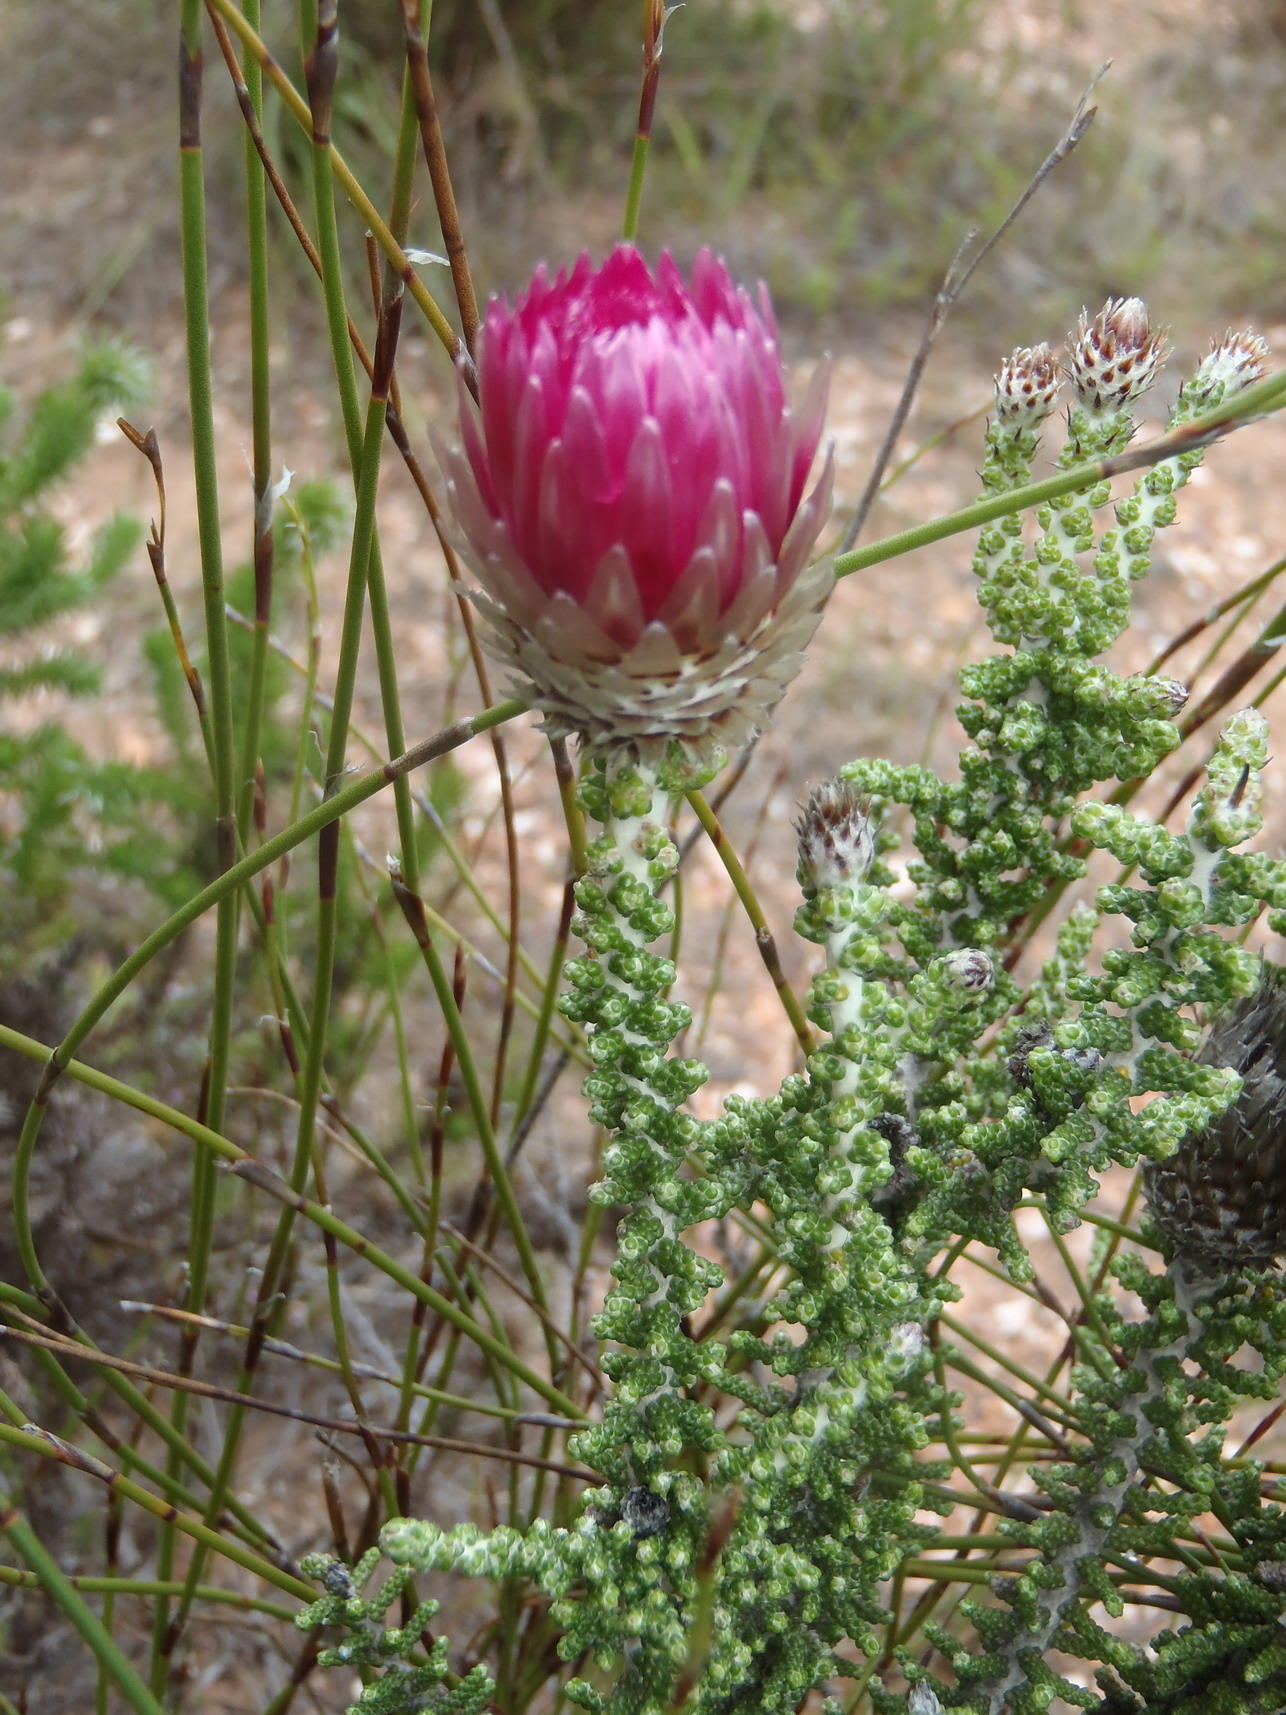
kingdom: Plantae
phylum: Tracheophyta
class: Magnoliopsida
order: Asterales
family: Asteraceae
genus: Phaenocoma
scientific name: Phaenocoma prolifera
